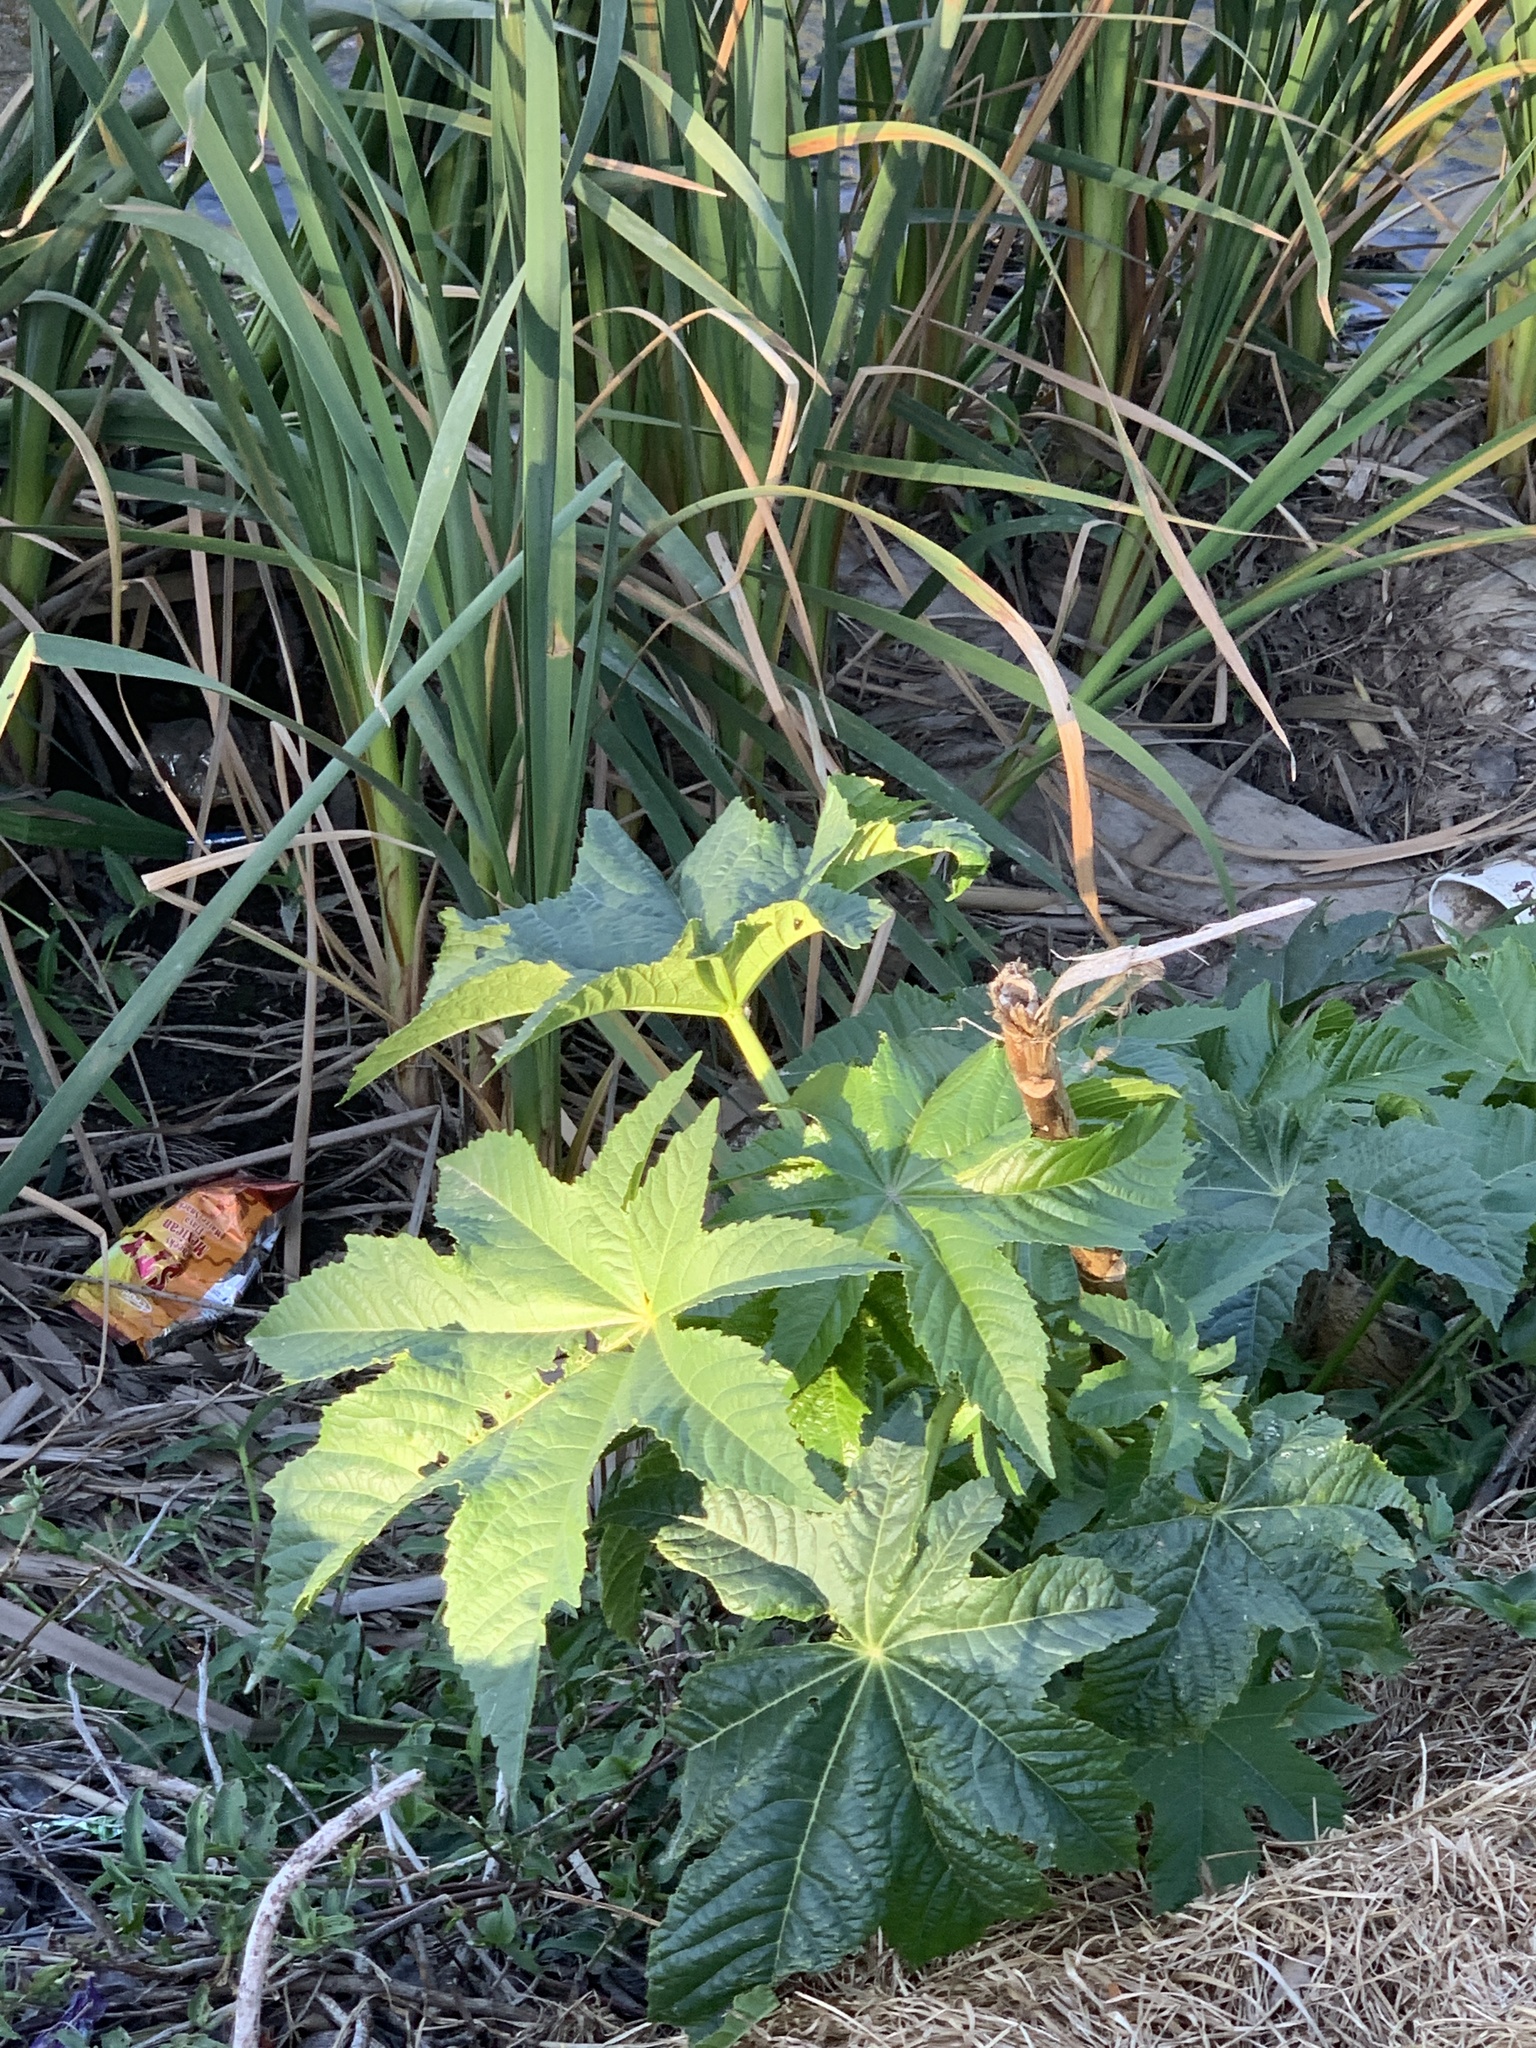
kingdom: Plantae
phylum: Tracheophyta
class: Magnoliopsida
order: Malpighiales
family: Euphorbiaceae
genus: Ricinus
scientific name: Ricinus communis
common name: Castor-oil-plant
